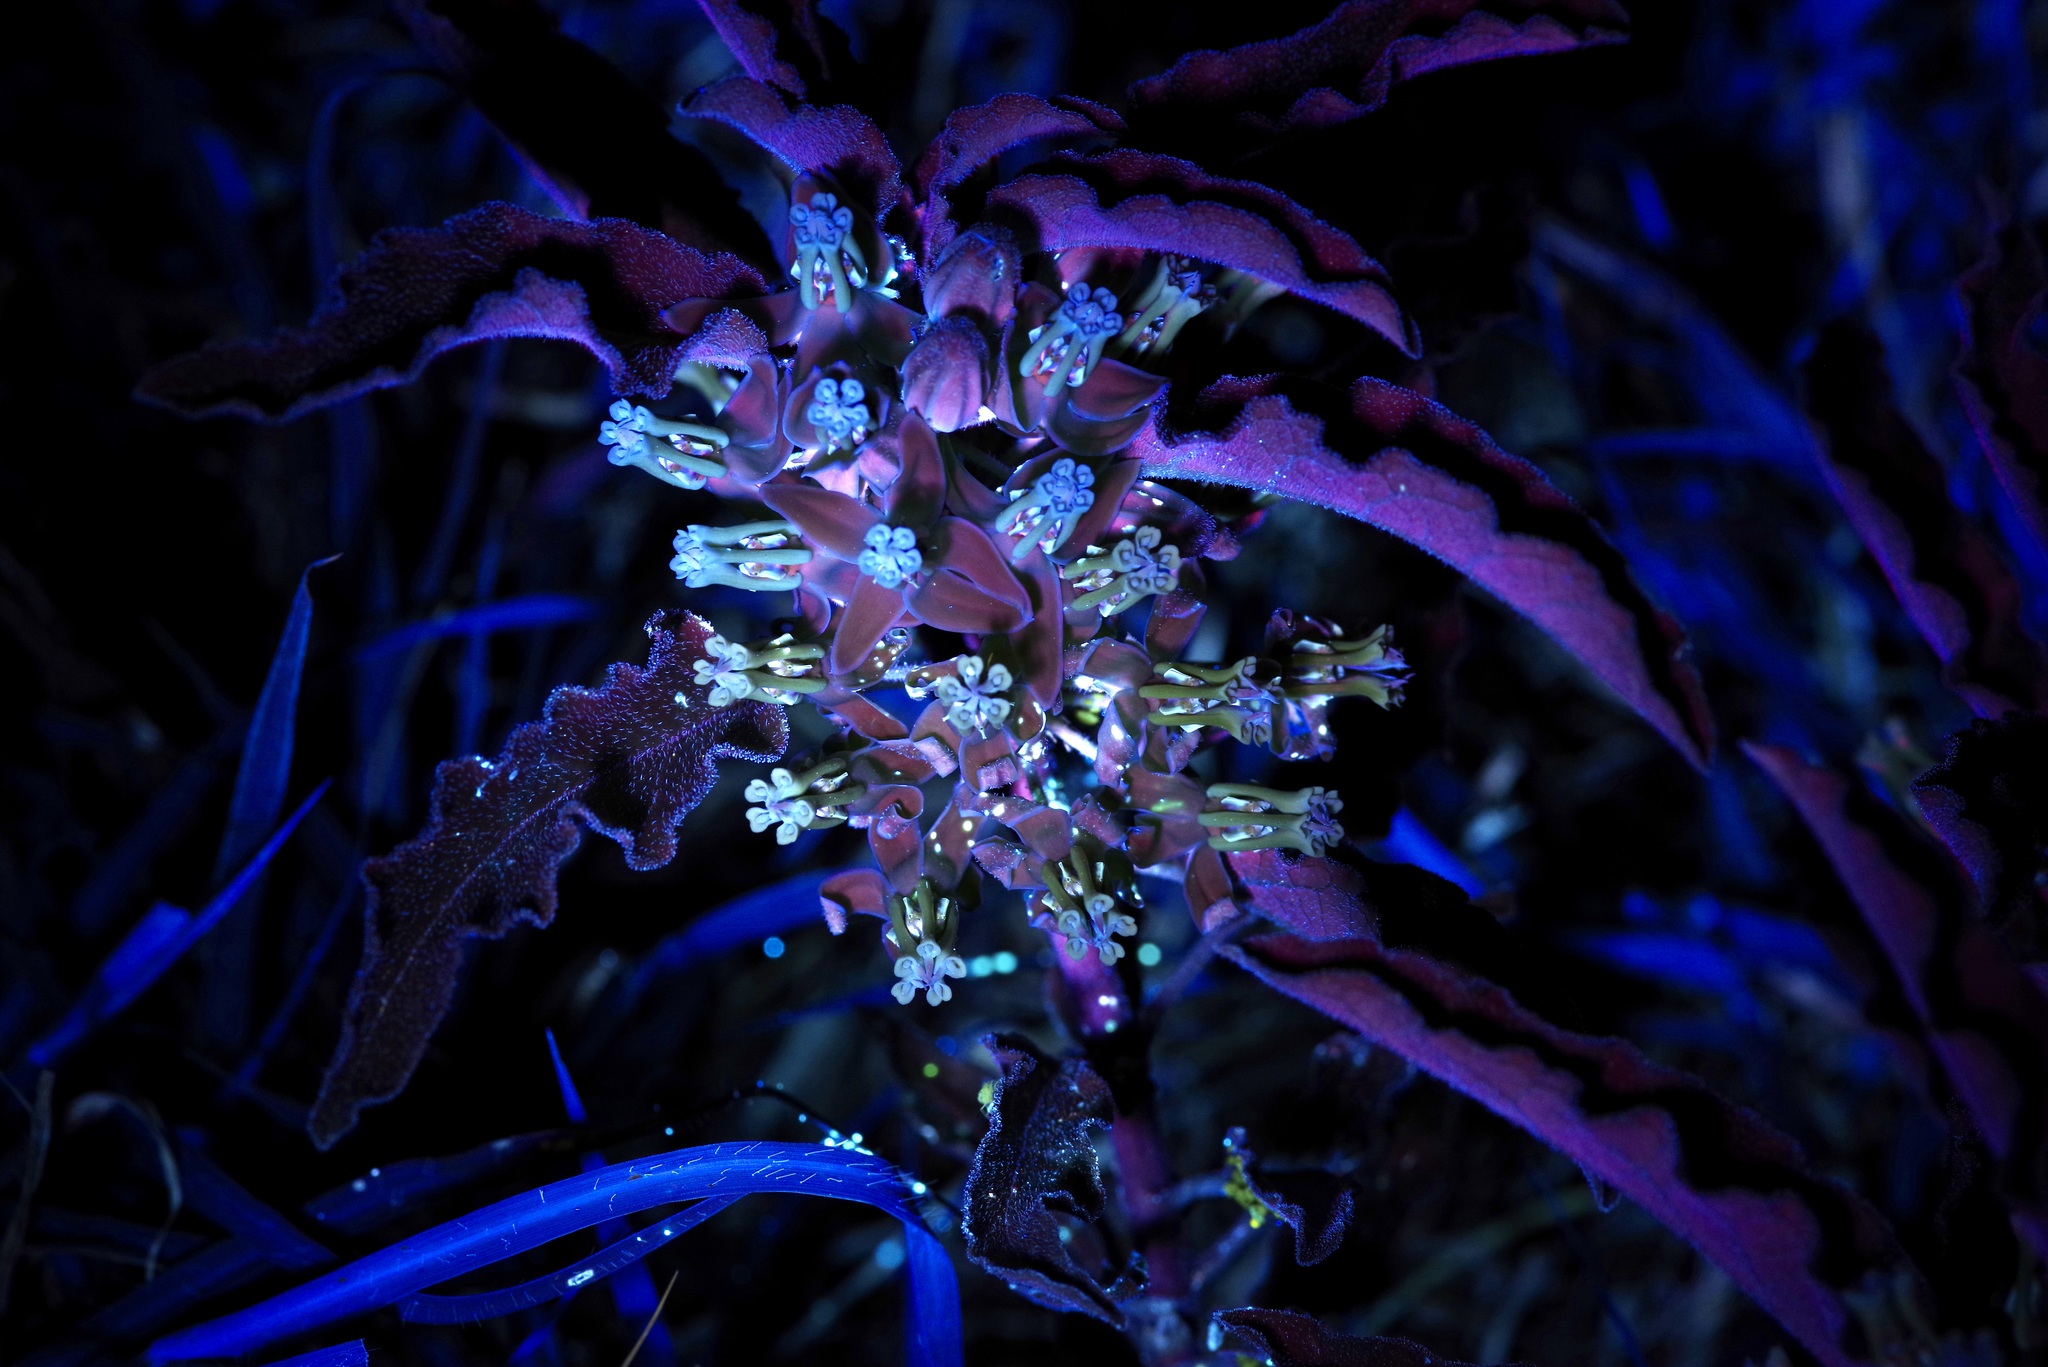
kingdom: Plantae
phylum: Tracheophyta
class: Magnoliopsida
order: Gentianales
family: Apocynaceae
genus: Asclepias
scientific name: Asclepias oenotheroides
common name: Zizotes milkweed
